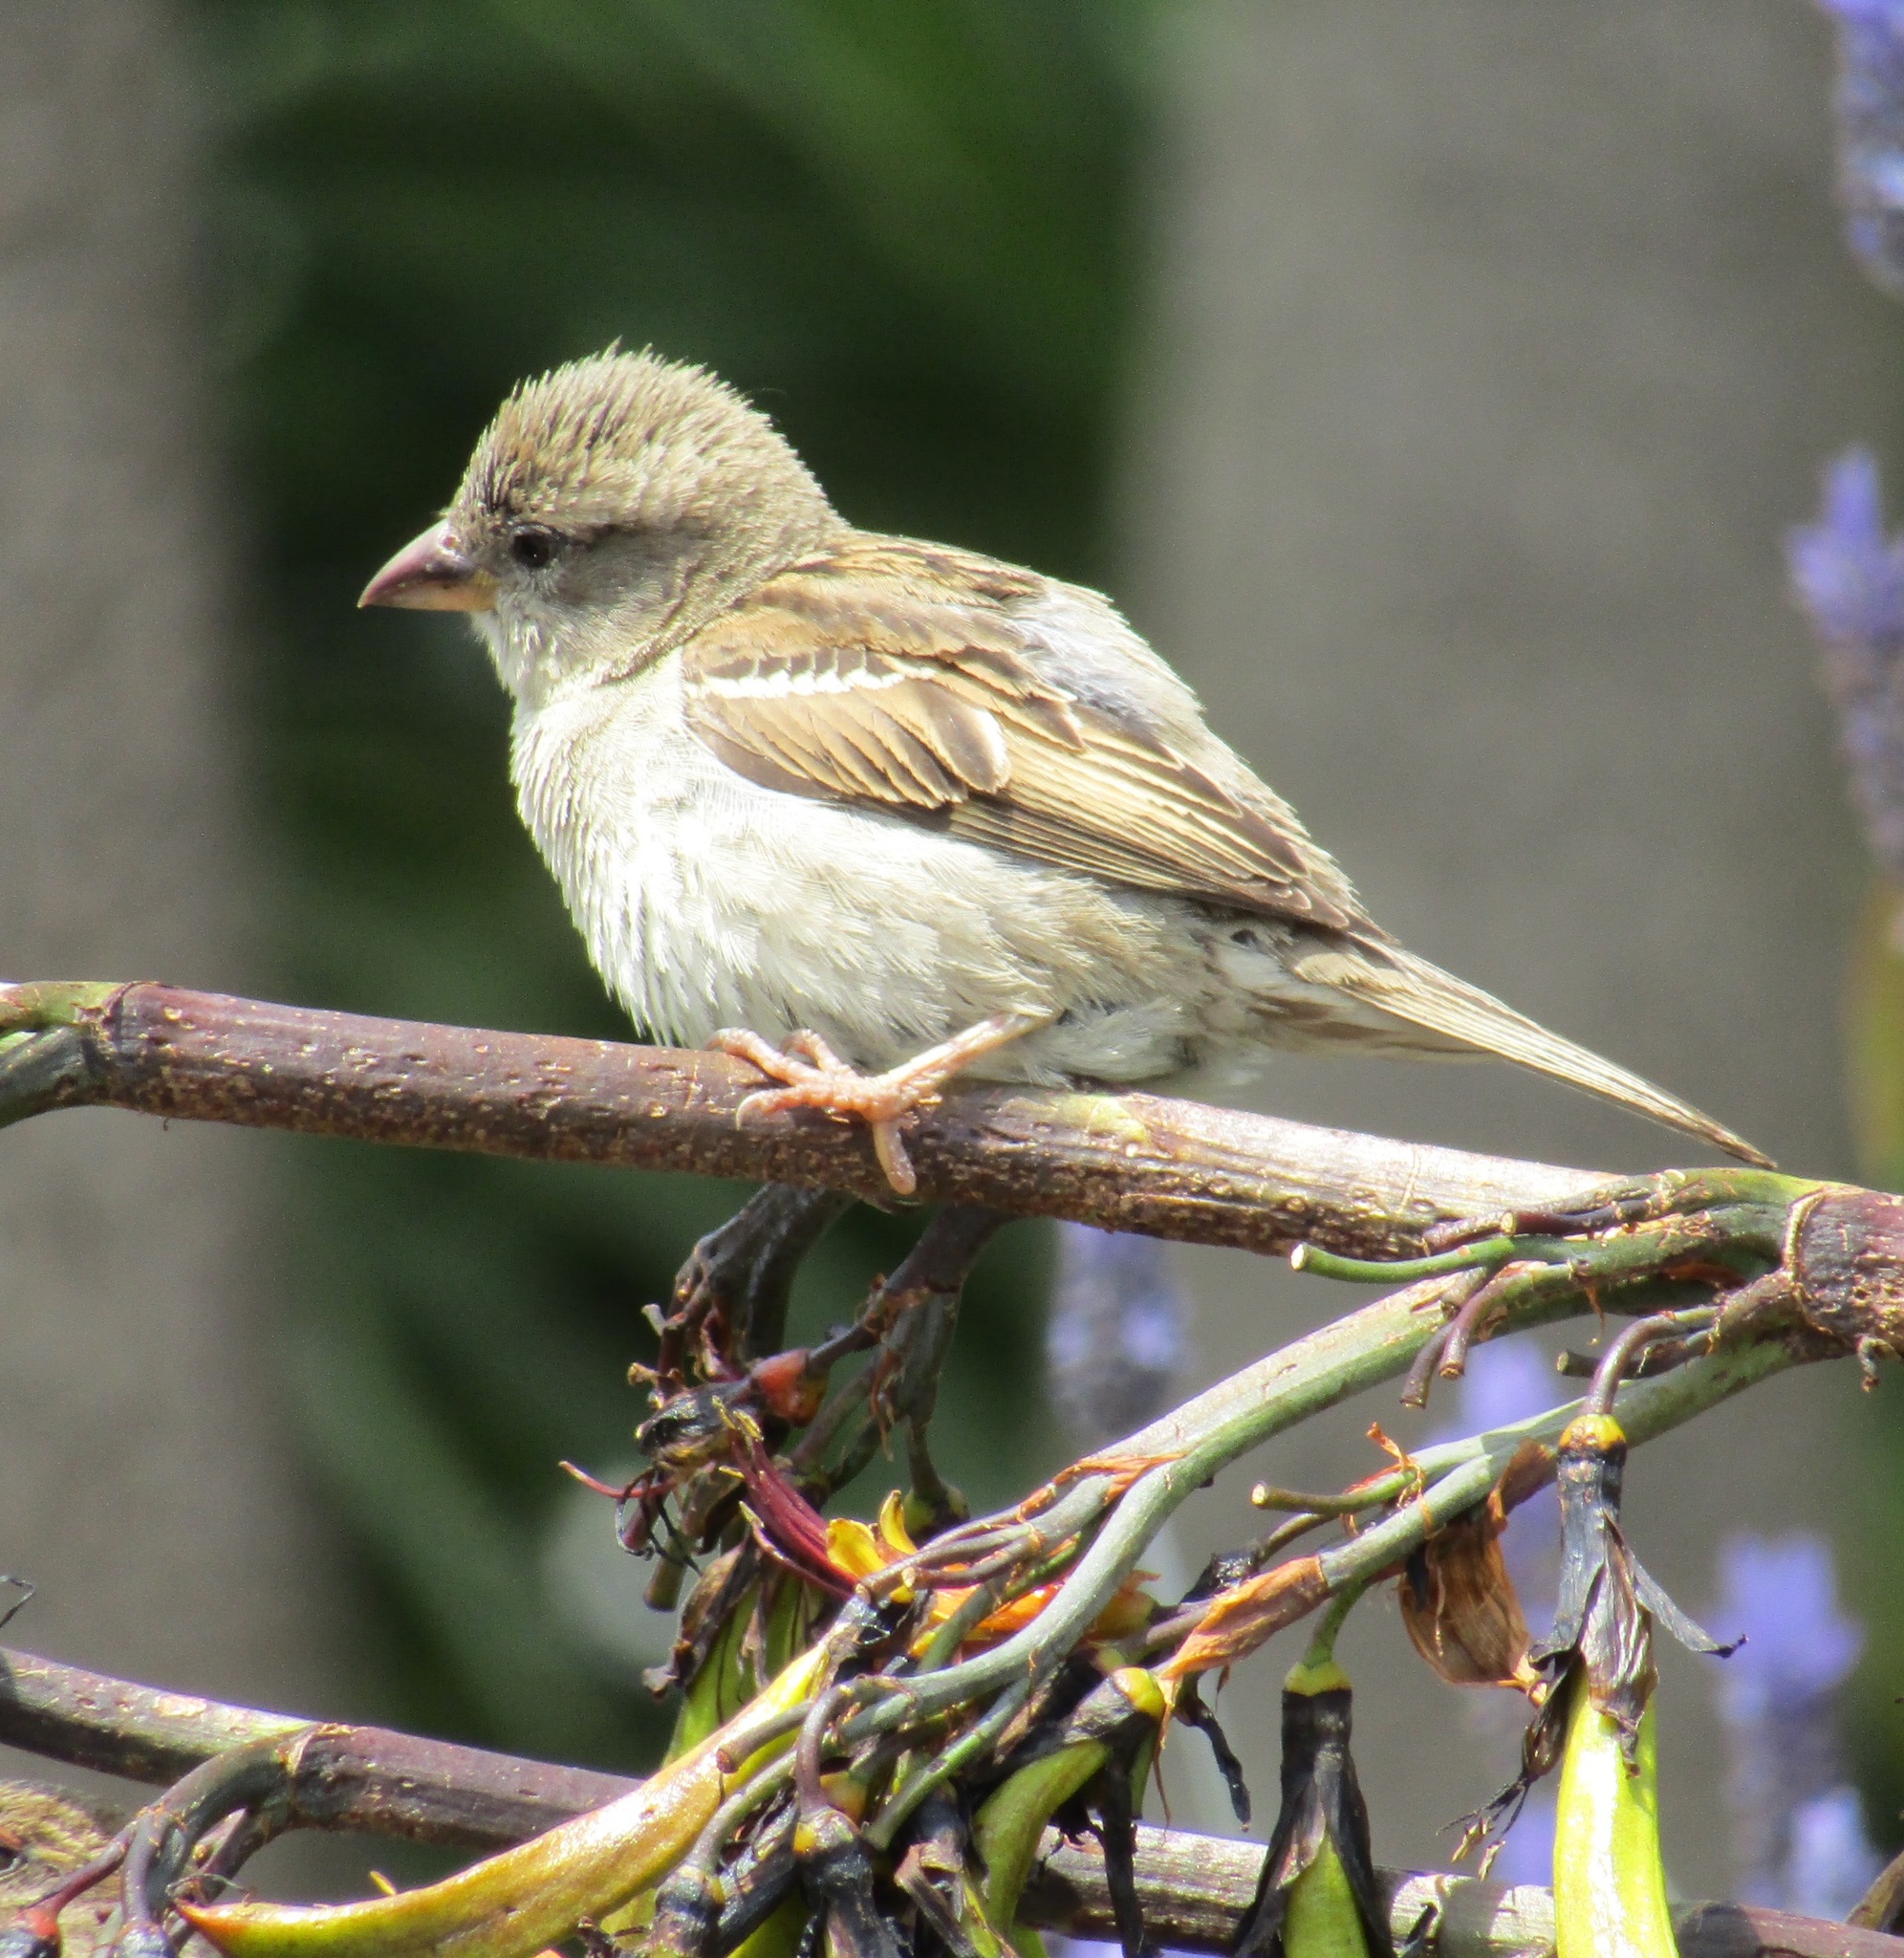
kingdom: Animalia
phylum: Chordata
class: Aves
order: Passeriformes
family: Passeridae
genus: Passer
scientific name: Passer domesticus
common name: House sparrow
